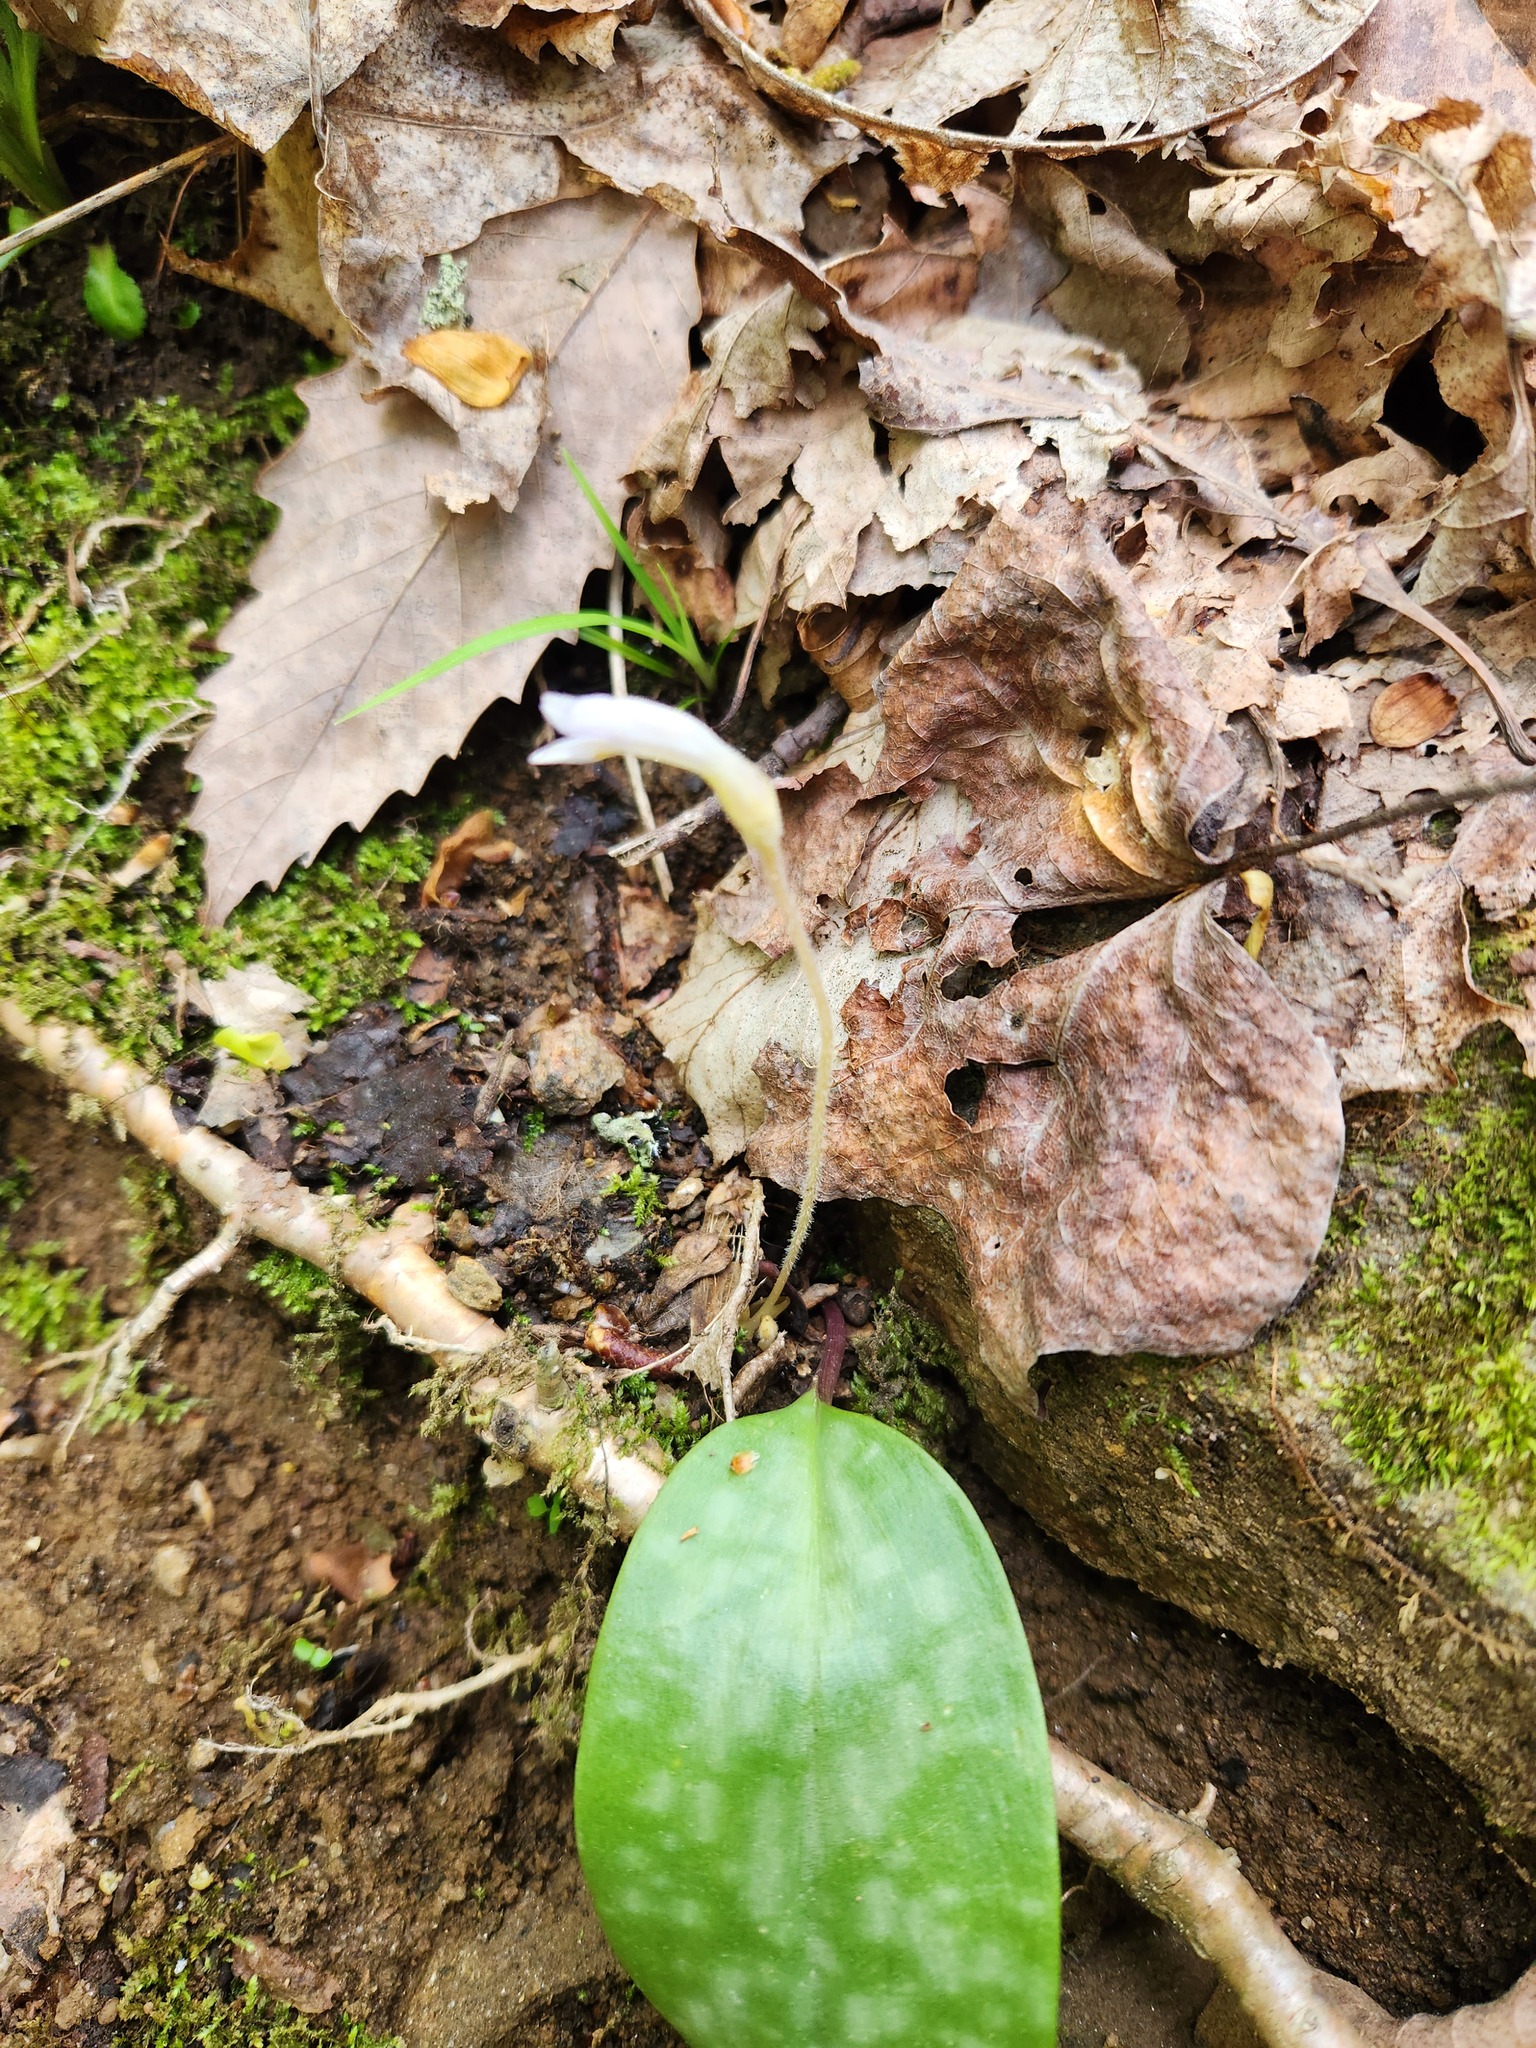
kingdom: Plantae
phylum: Tracheophyta
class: Magnoliopsida
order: Lamiales
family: Orobanchaceae
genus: Aphyllon
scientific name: Aphyllon uniflorum
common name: One-flowered broomrape
